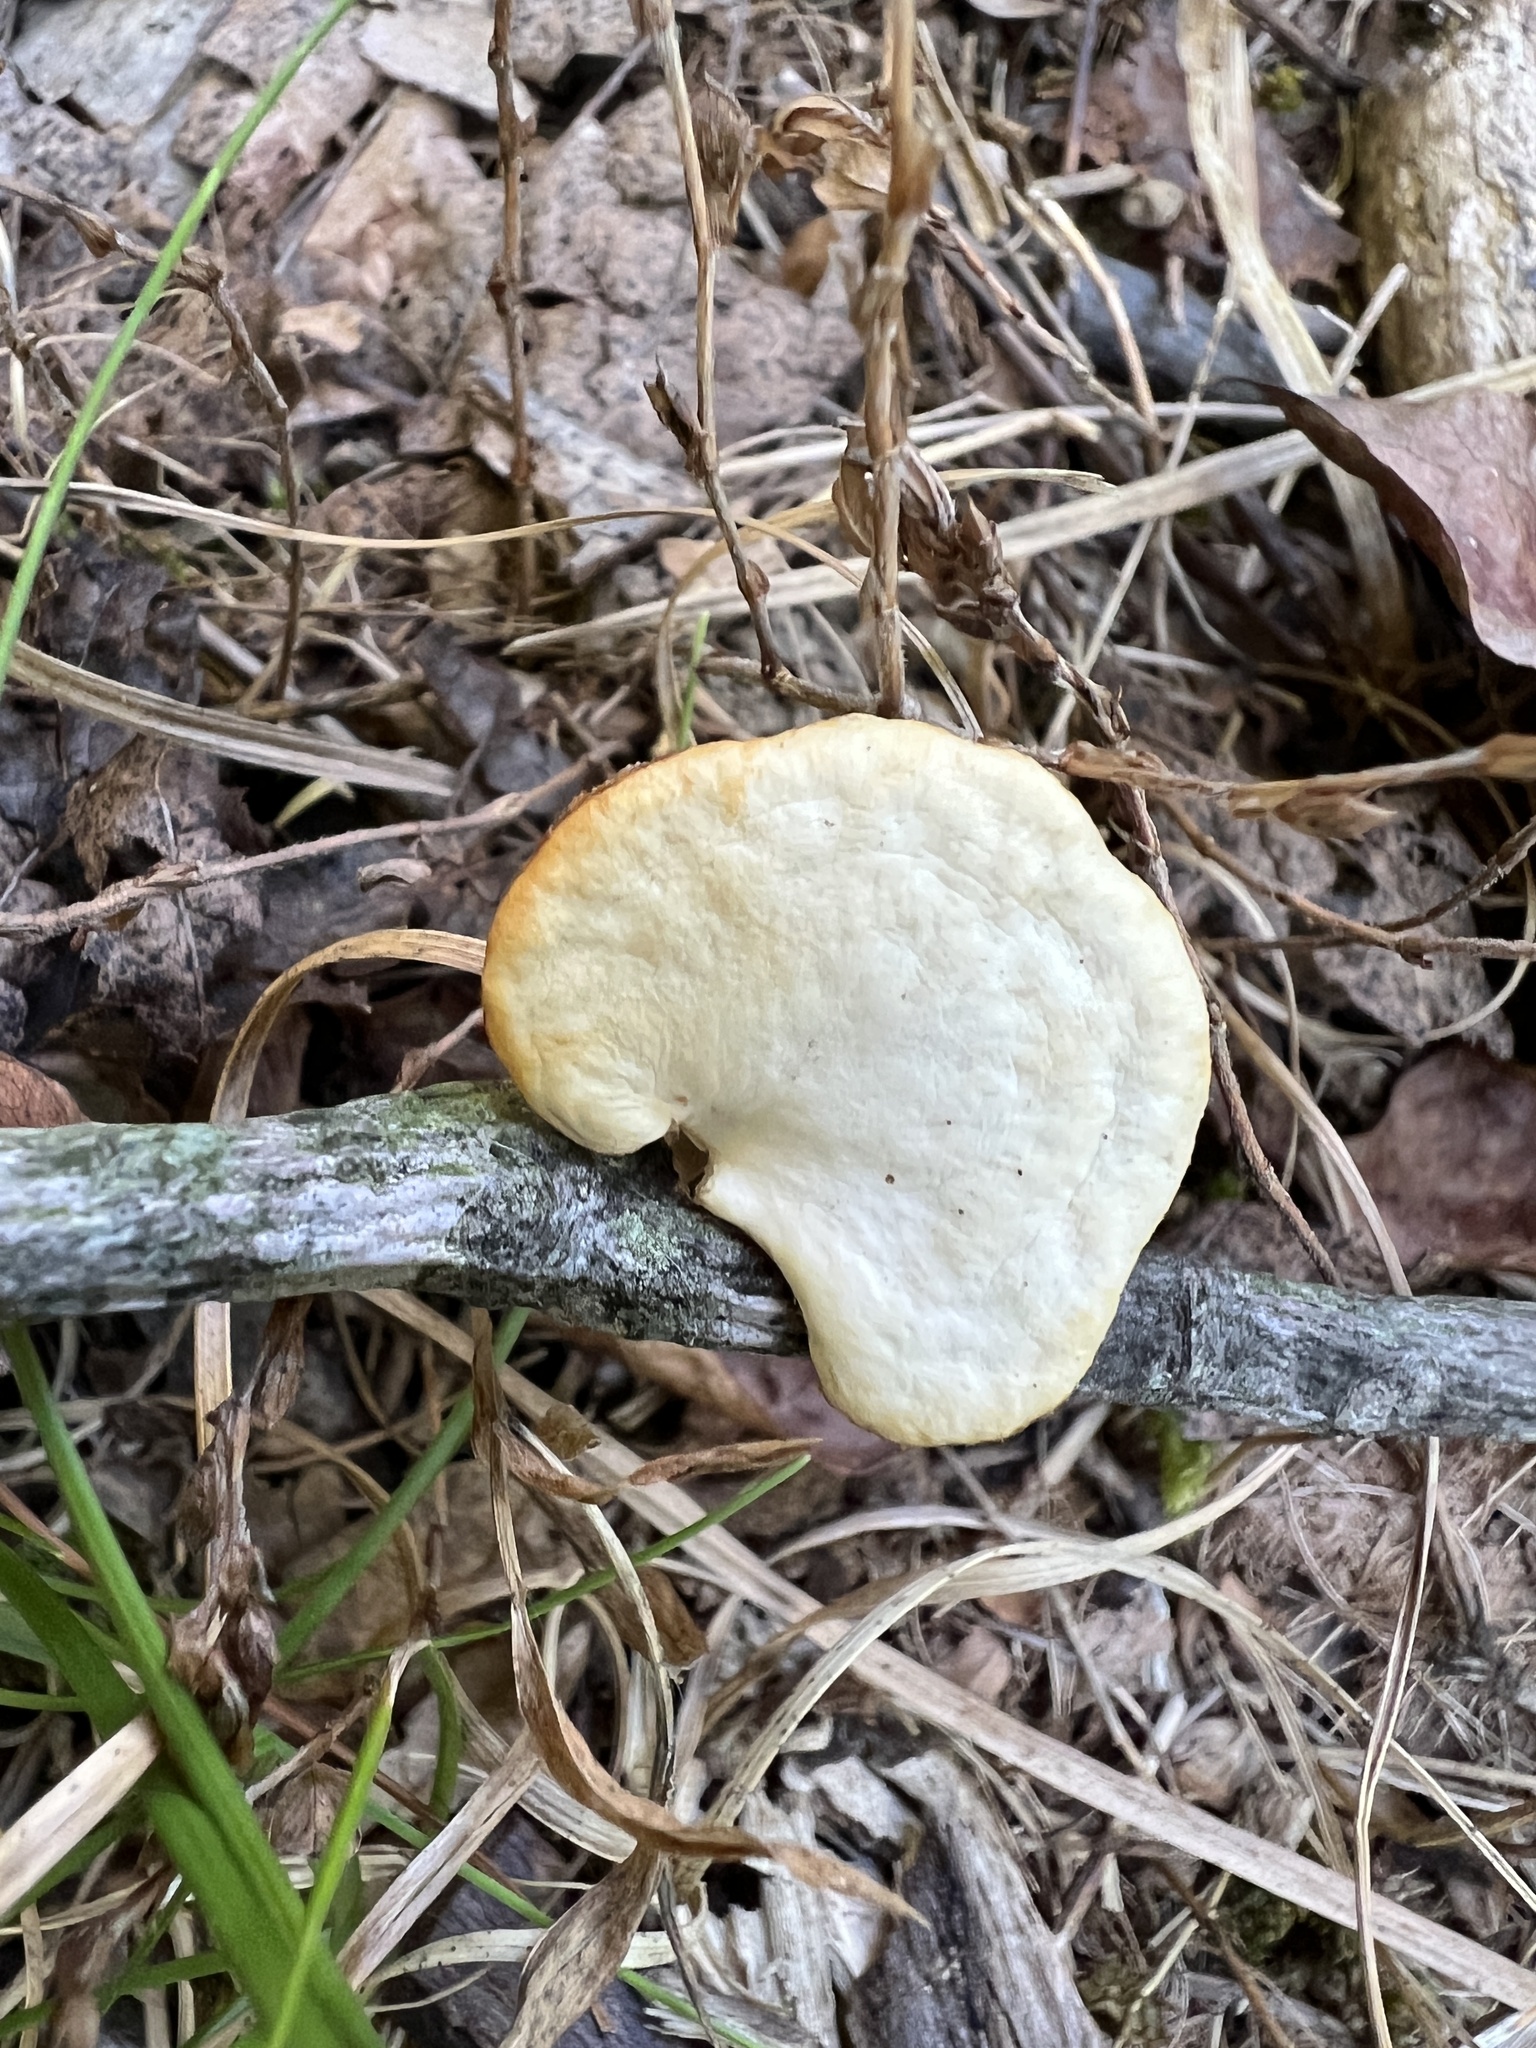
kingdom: Fungi
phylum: Basidiomycota
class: Agaricomycetes
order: Polyporales
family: Polyporaceae
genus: Neofavolus
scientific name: Neofavolus americanus
